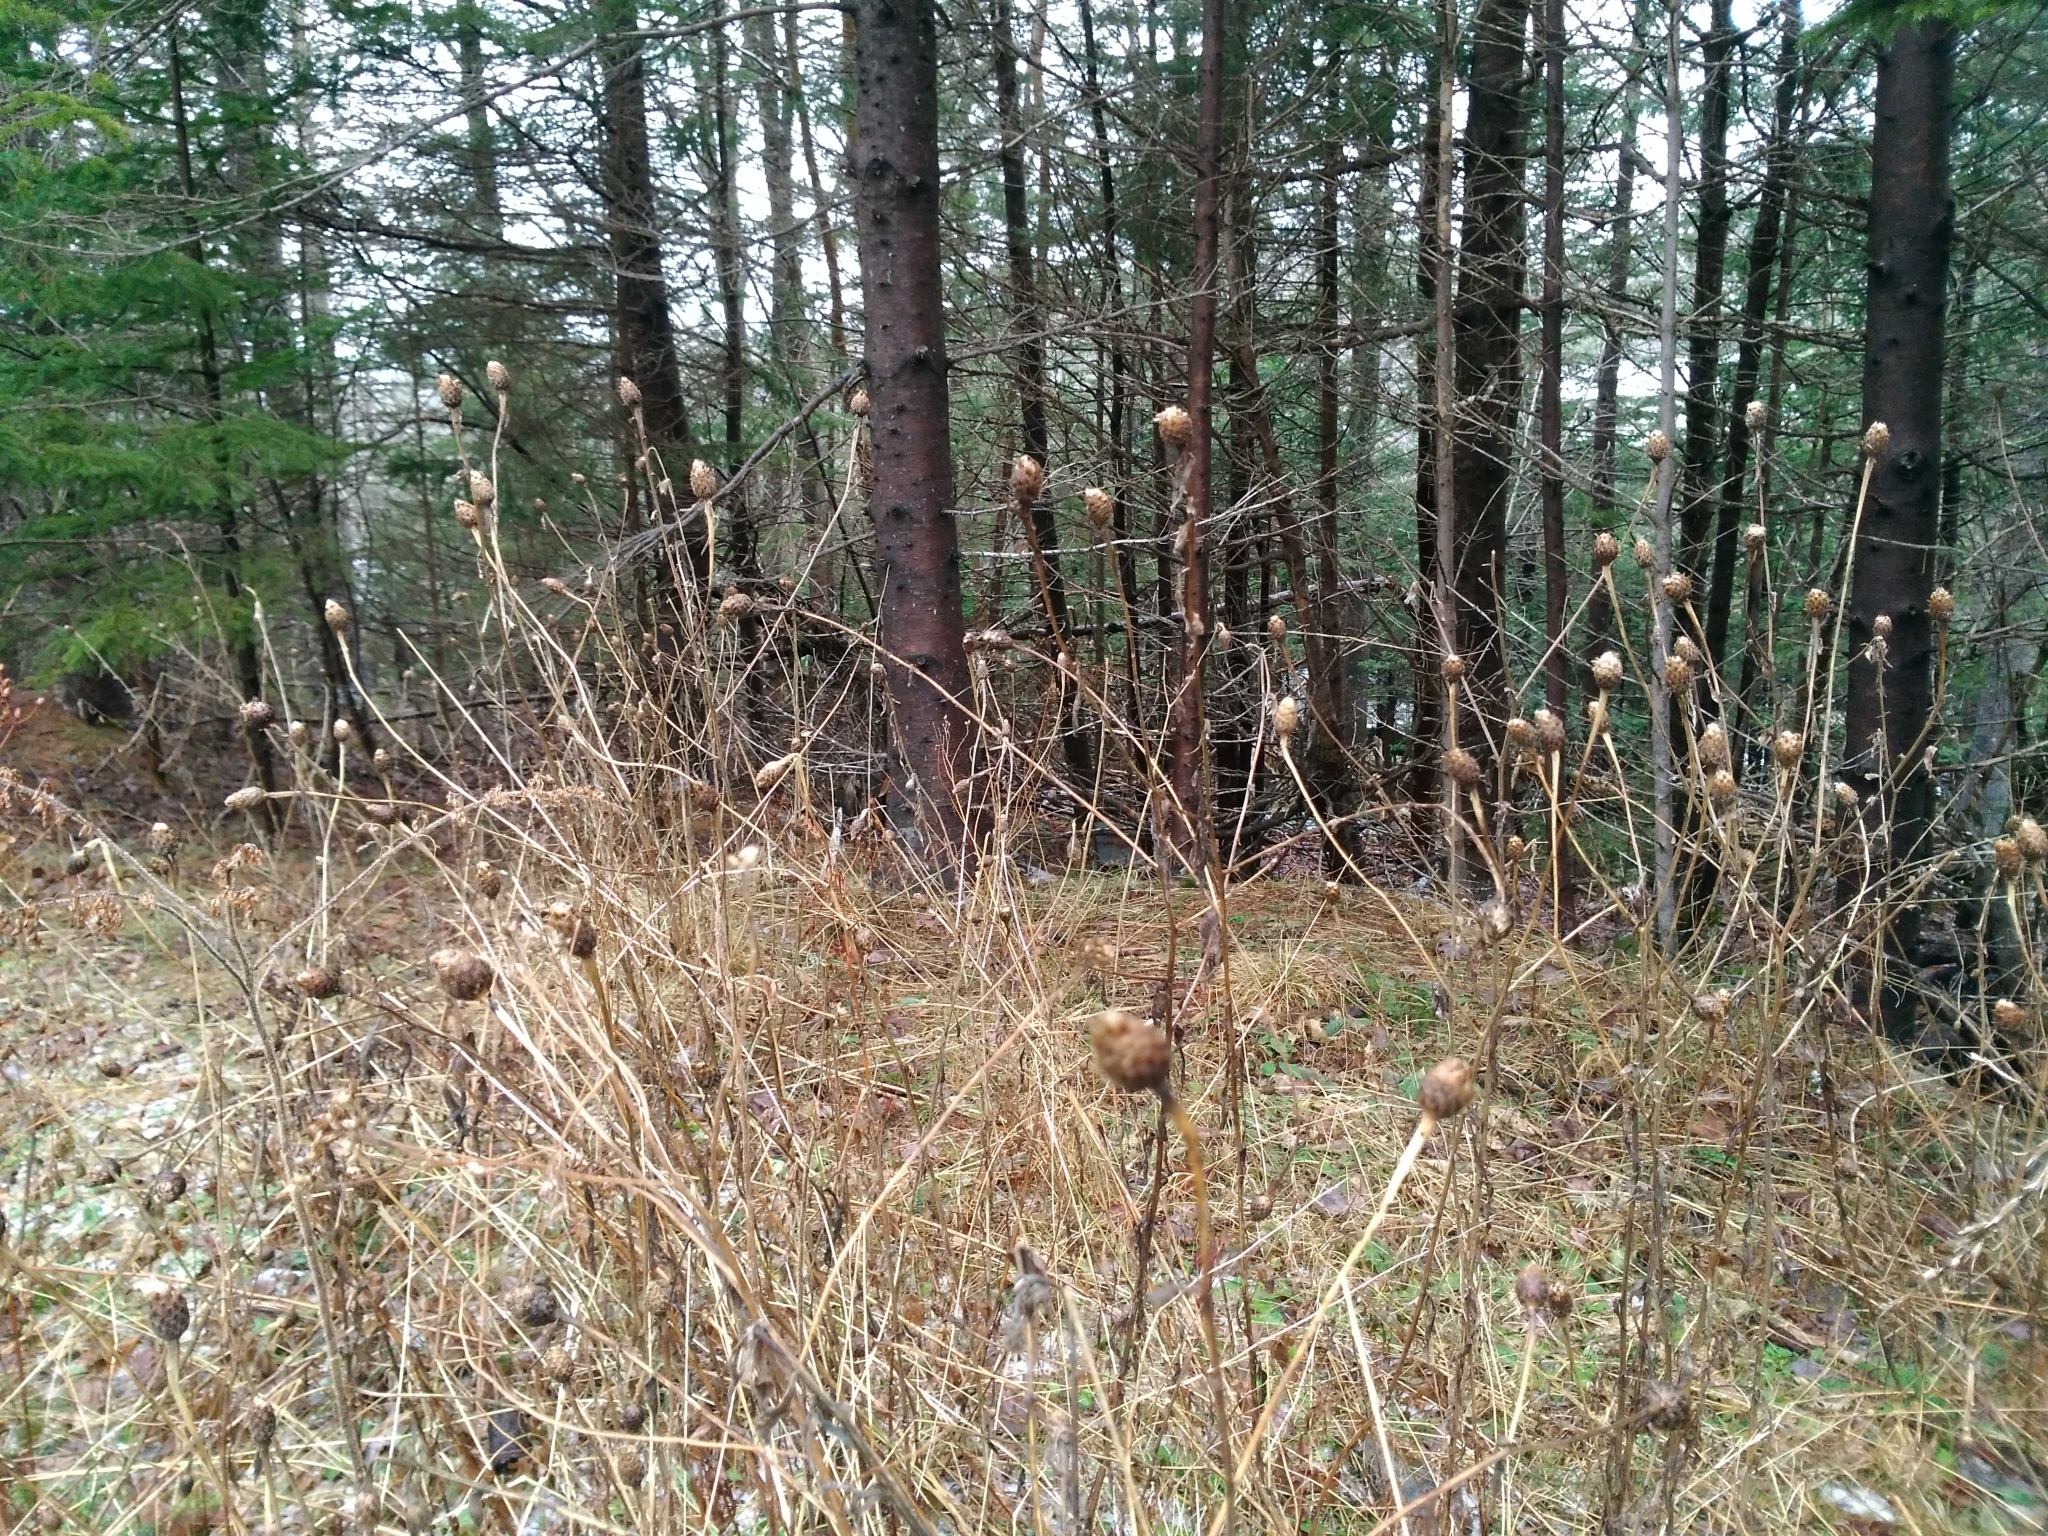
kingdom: Plantae
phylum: Tracheophyta
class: Magnoliopsida
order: Asterales
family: Asteraceae
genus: Centaurea
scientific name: Centaurea nigra
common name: Lesser knapweed
